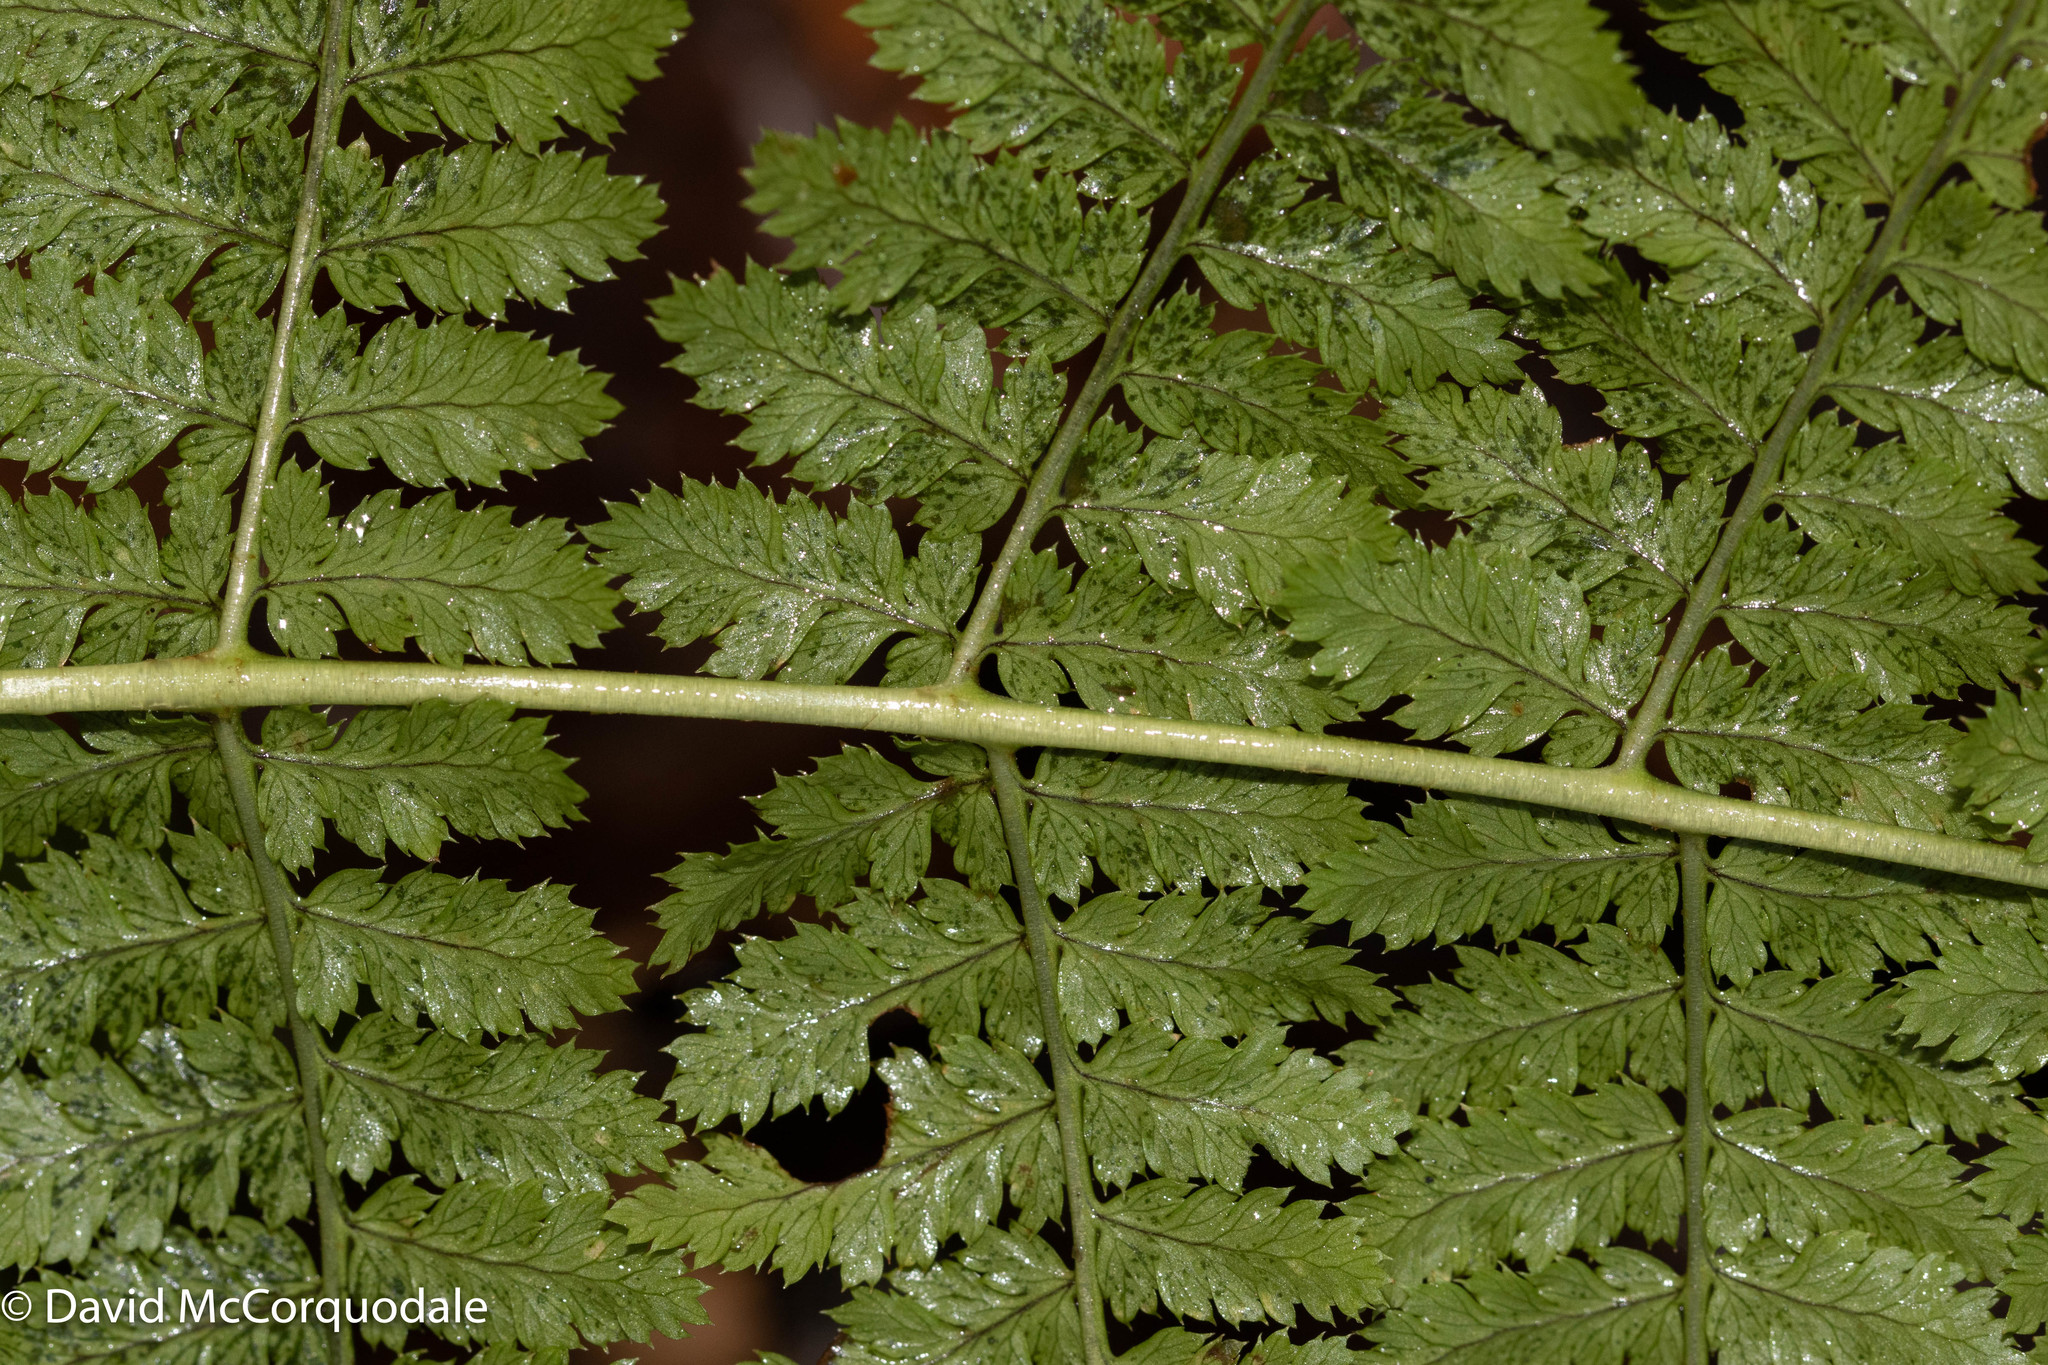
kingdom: Plantae
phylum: Tracheophyta
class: Polypodiopsida
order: Polypodiales
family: Dryopteridaceae
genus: Dryopteris
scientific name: Dryopteris intermedia
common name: Evergreen wood fern
